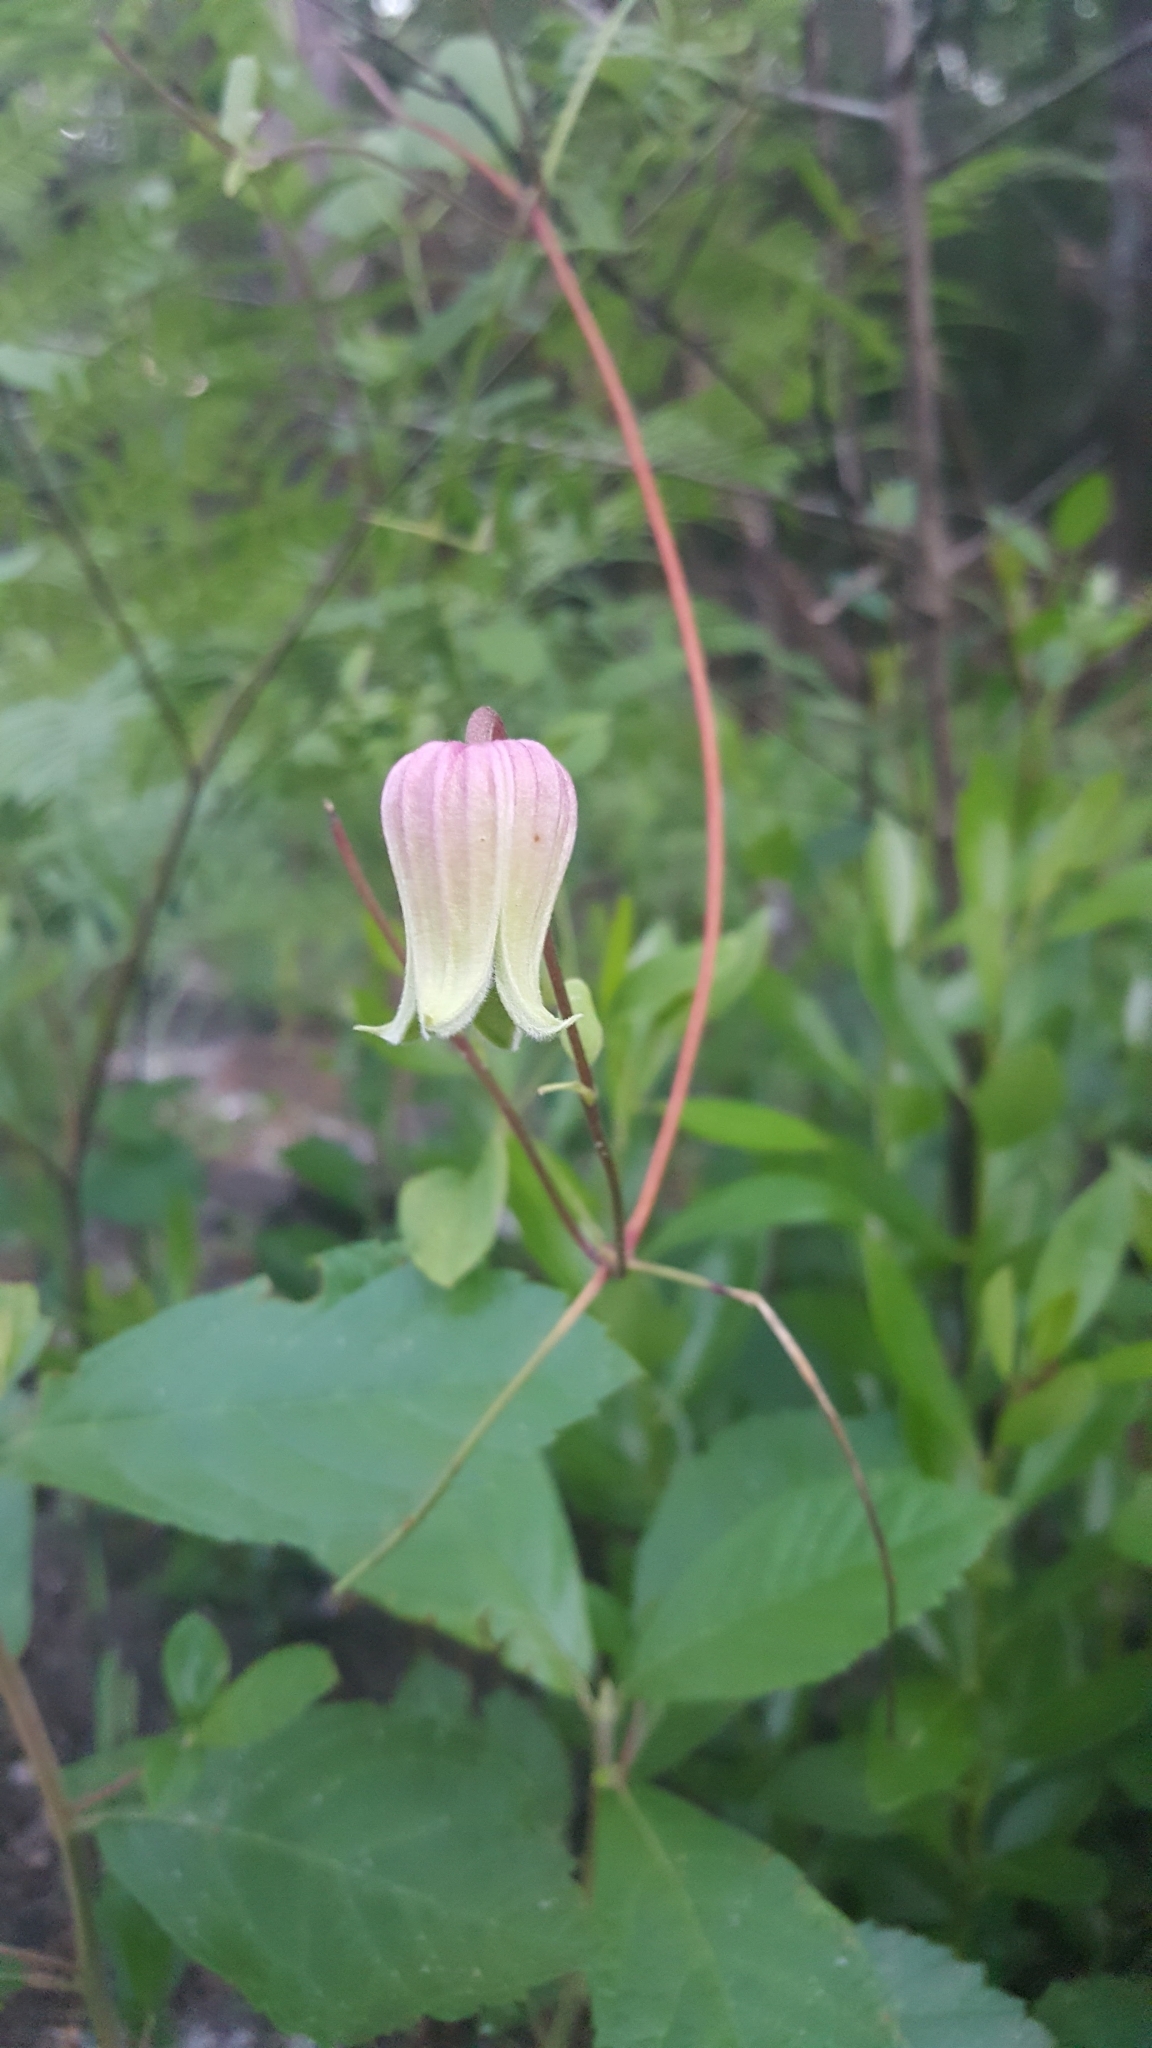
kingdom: Plantae
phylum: Tracheophyta
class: Magnoliopsida
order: Ranunculales
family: Ranunculaceae
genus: Clematis
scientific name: Clematis reticulata
